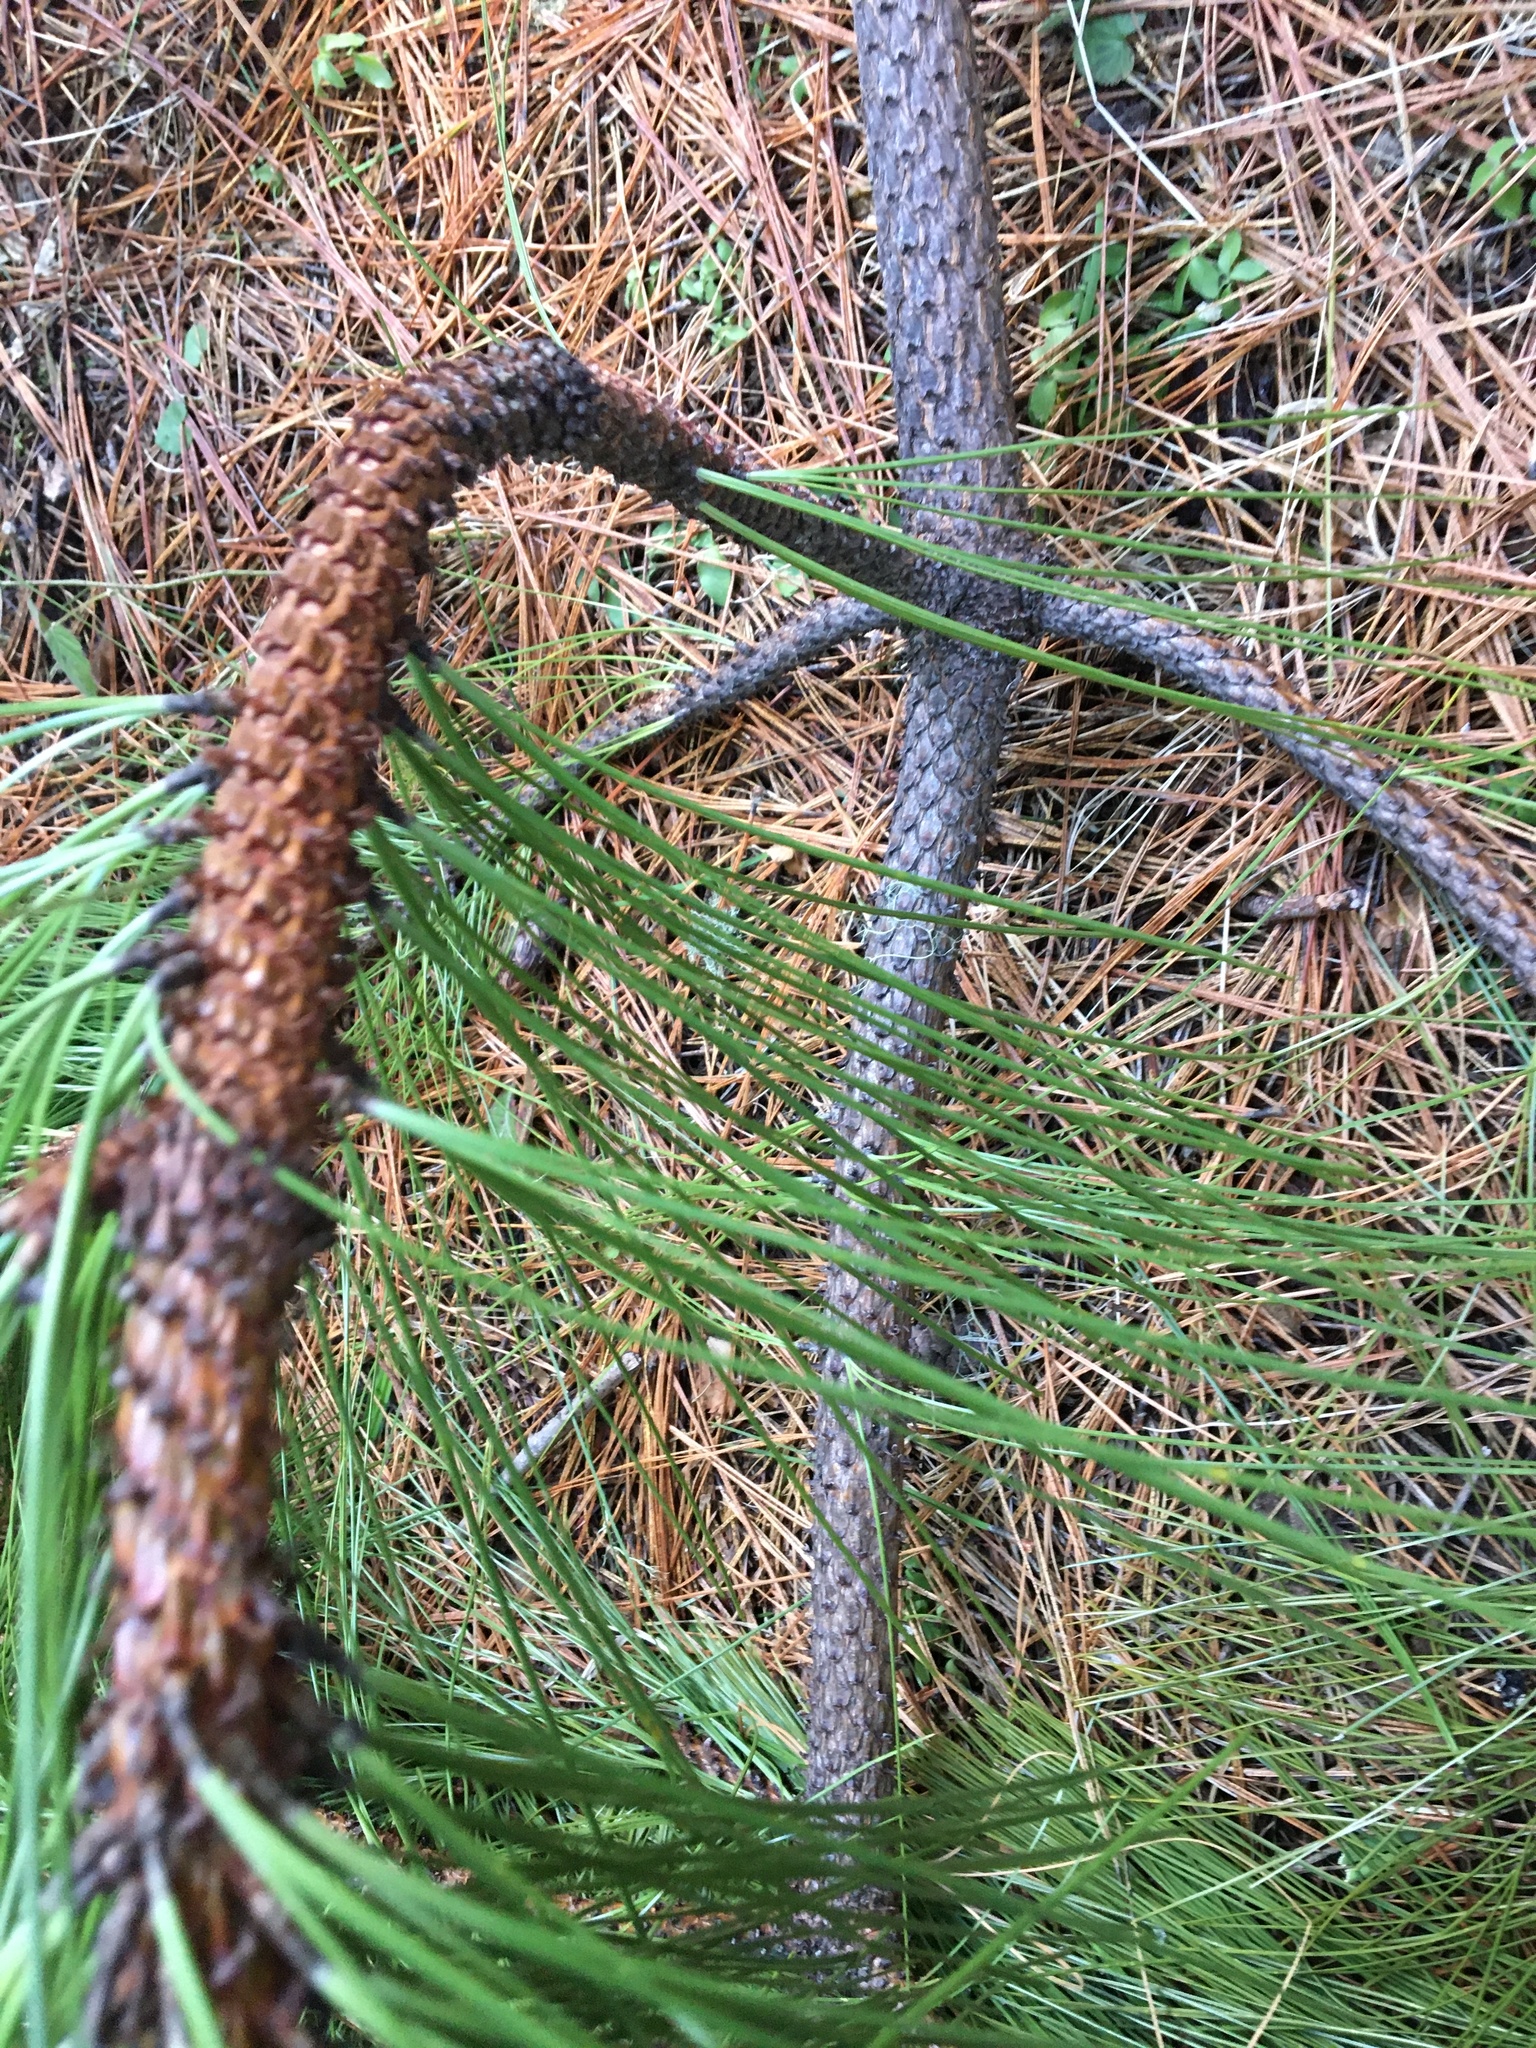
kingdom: Plantae
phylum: Tracheophyta
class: Pinopsida
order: Pinales
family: Pinaceae
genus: Pinus
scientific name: Pinus ponderosa
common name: Western yellow-pine
